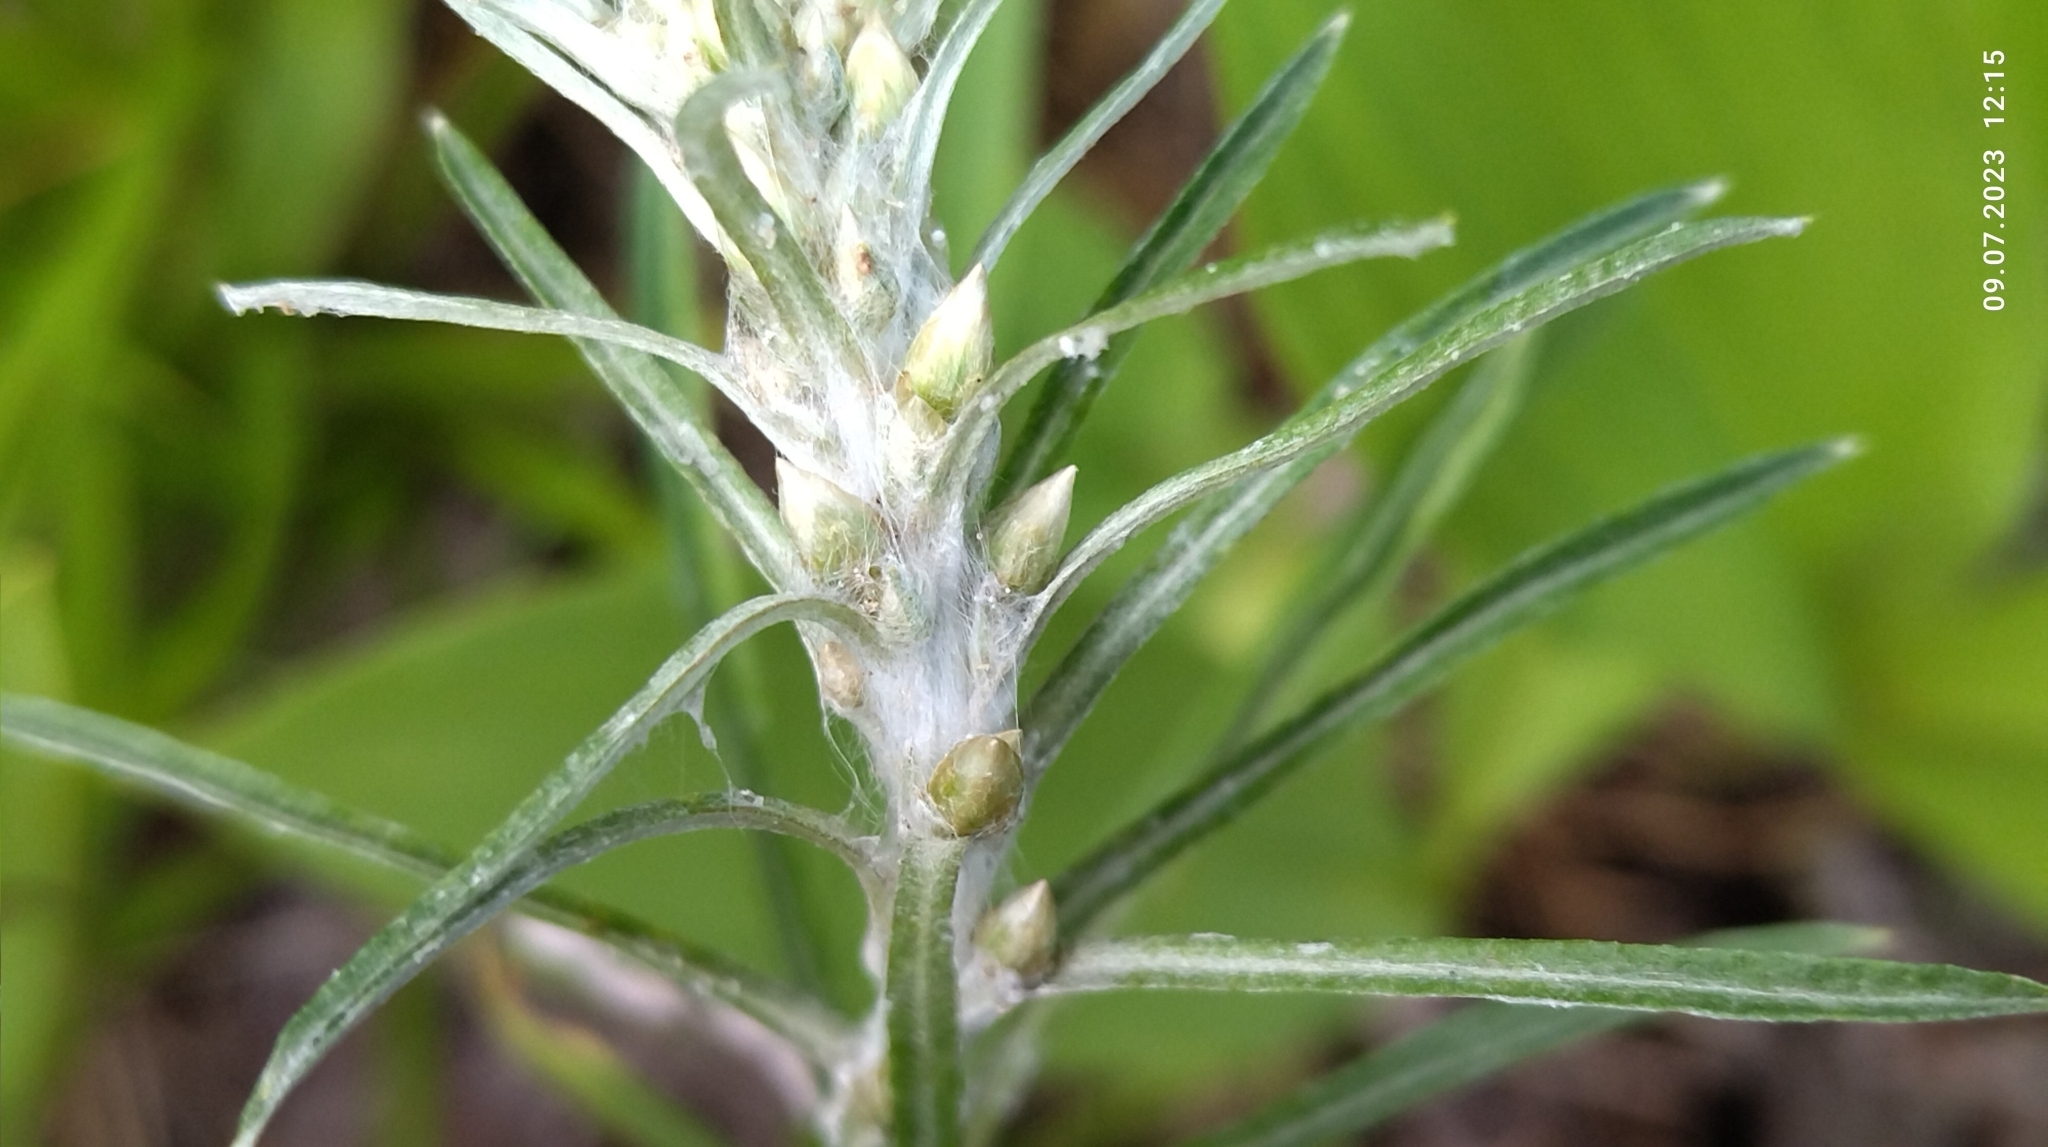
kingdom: Plantae
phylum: Tracheophyta
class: Magnoliopsida
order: Asterales
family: Asteraceae
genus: Omalotheca
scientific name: Omalotheca sylvatica
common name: Heath cudweed
